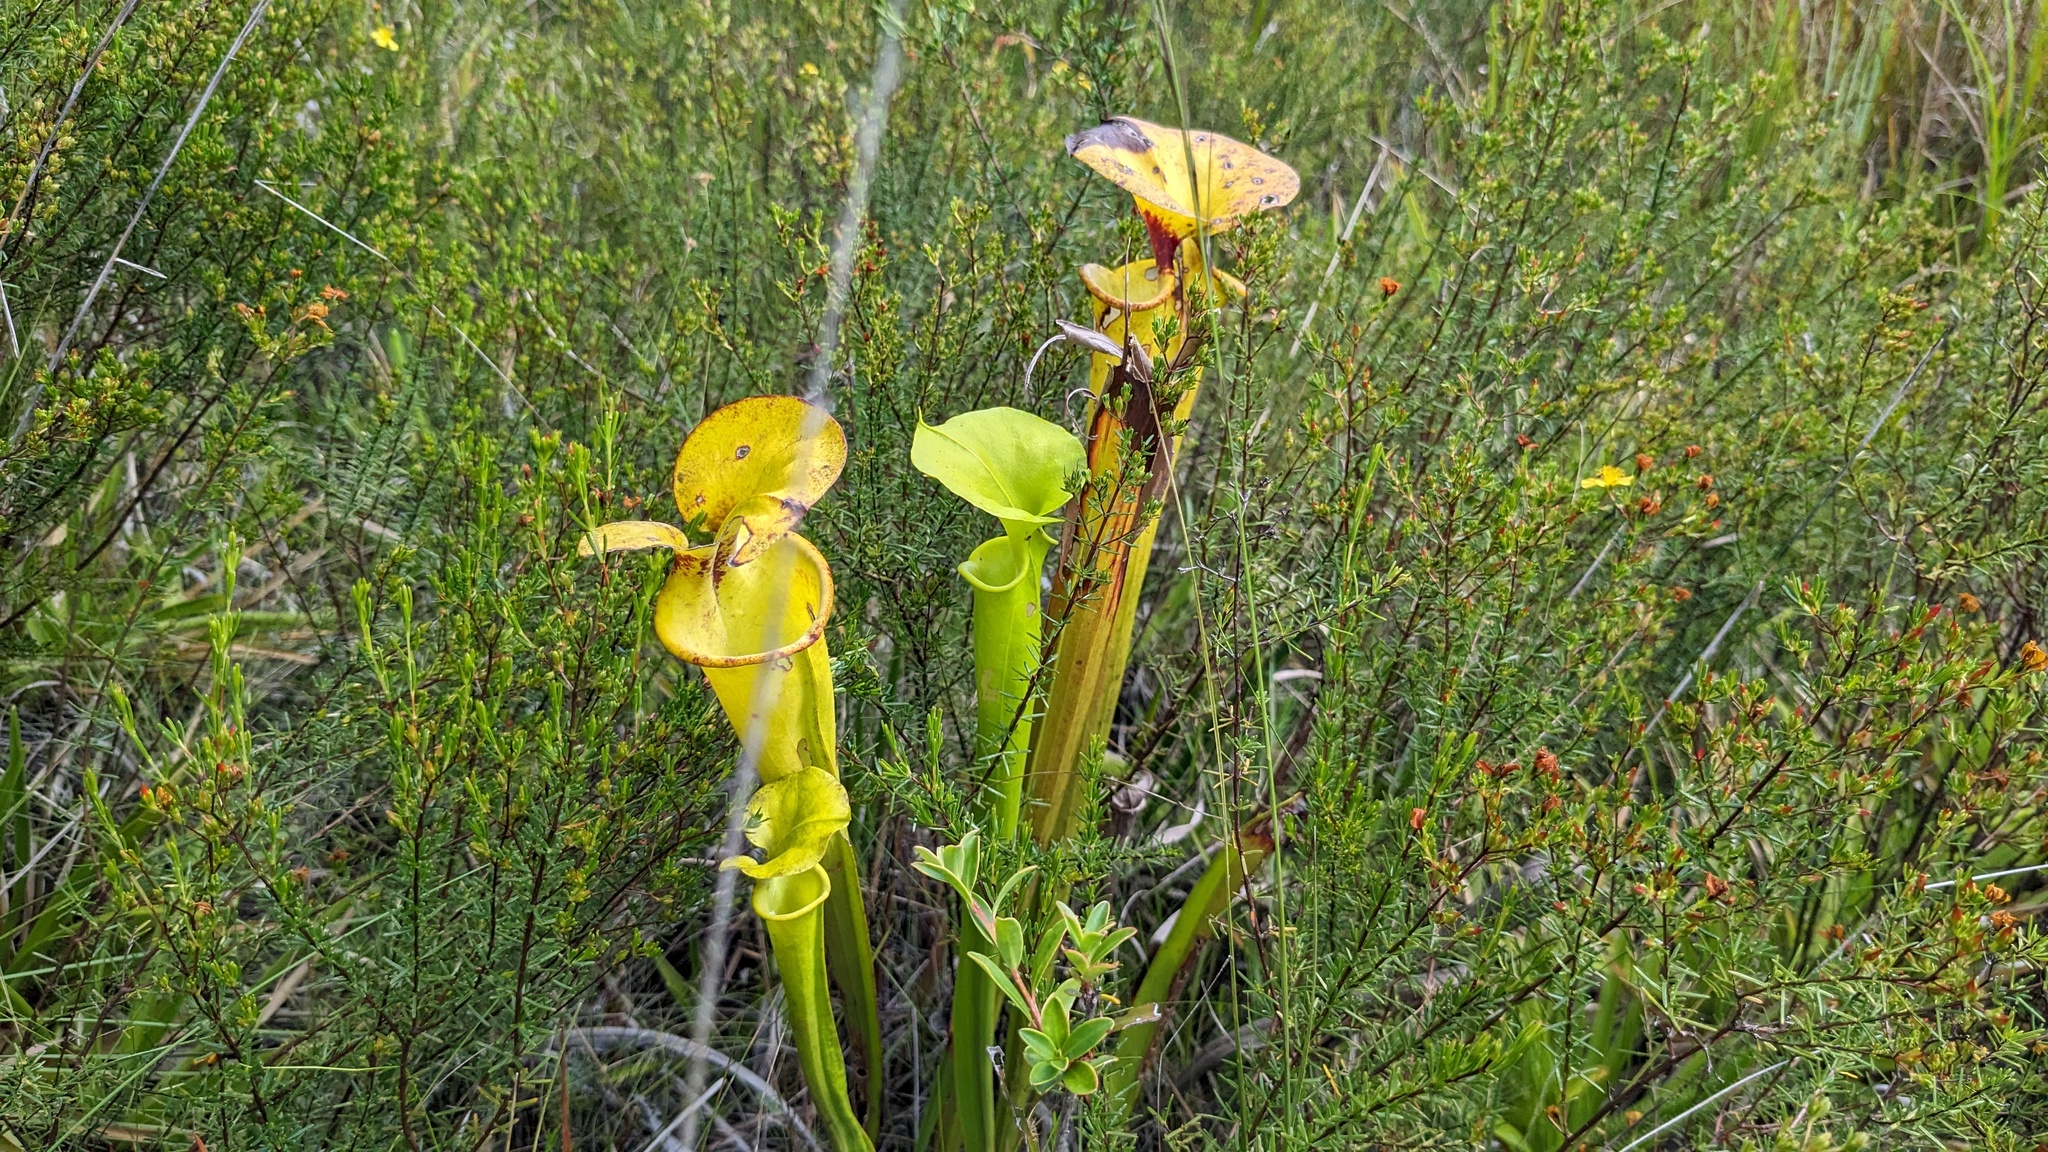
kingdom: Plantae
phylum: Tracheophyta
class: Magnoliopsida
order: Ericales
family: Sarraceniaceae
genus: Sarracenia
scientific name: Sarracenia flava
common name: Trumpets
